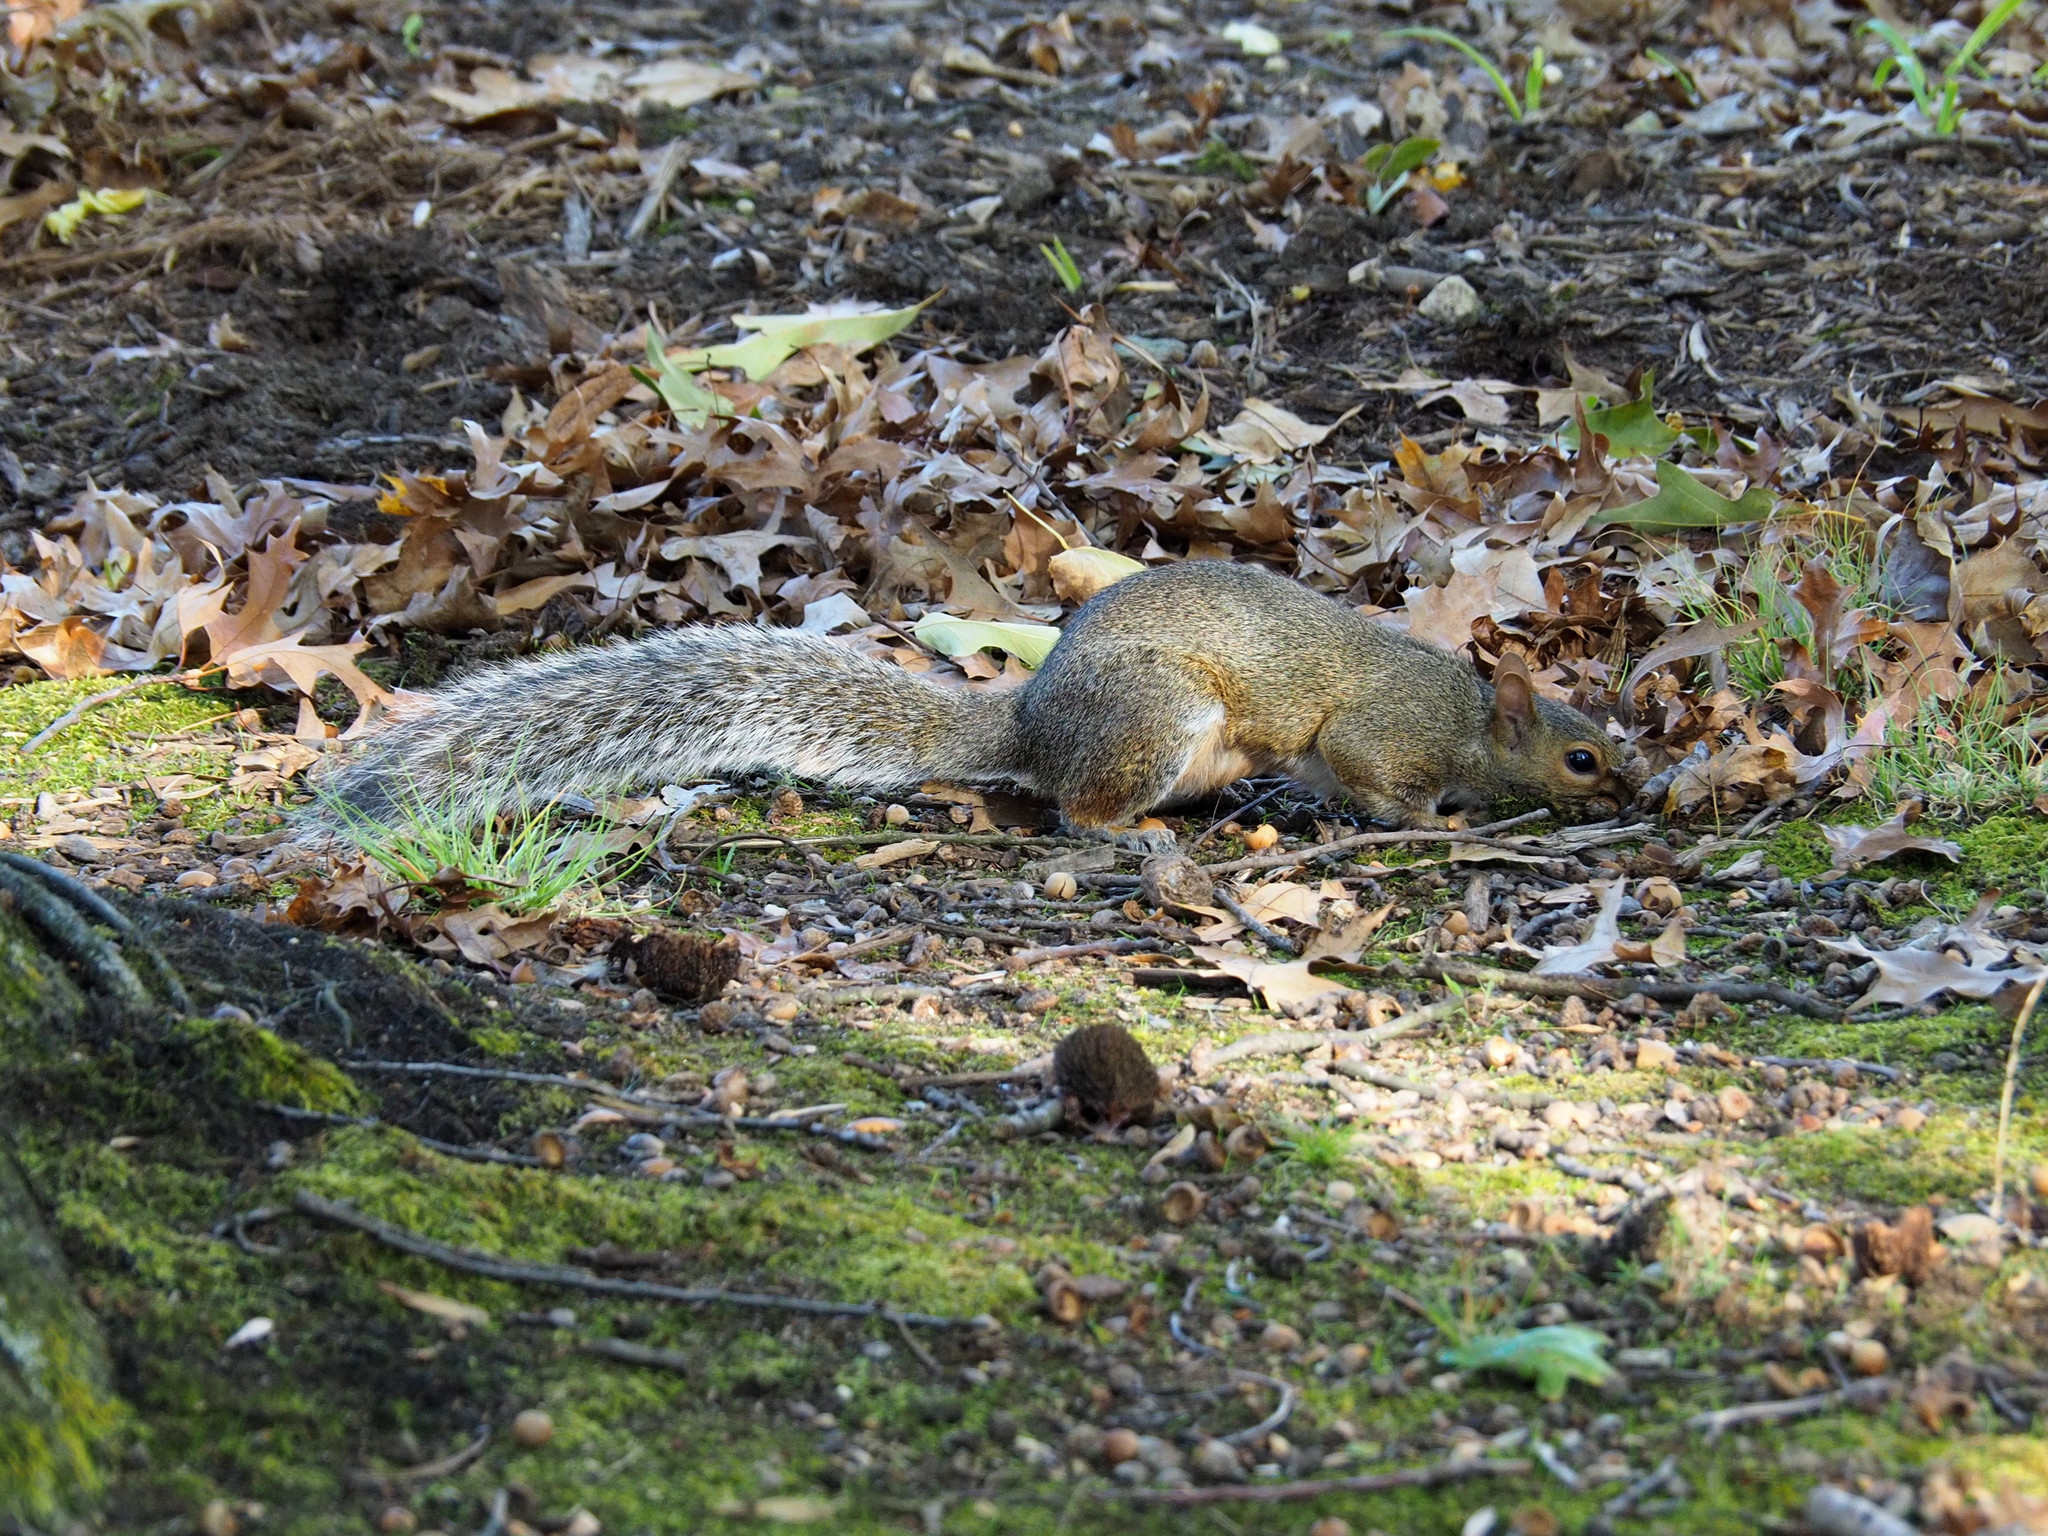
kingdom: Animalia
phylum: Chordata
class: Mammalia
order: Rodentia
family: Sciuridae
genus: Sciurus
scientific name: Sciurus carolinensis
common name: Eastern gray squirrel
